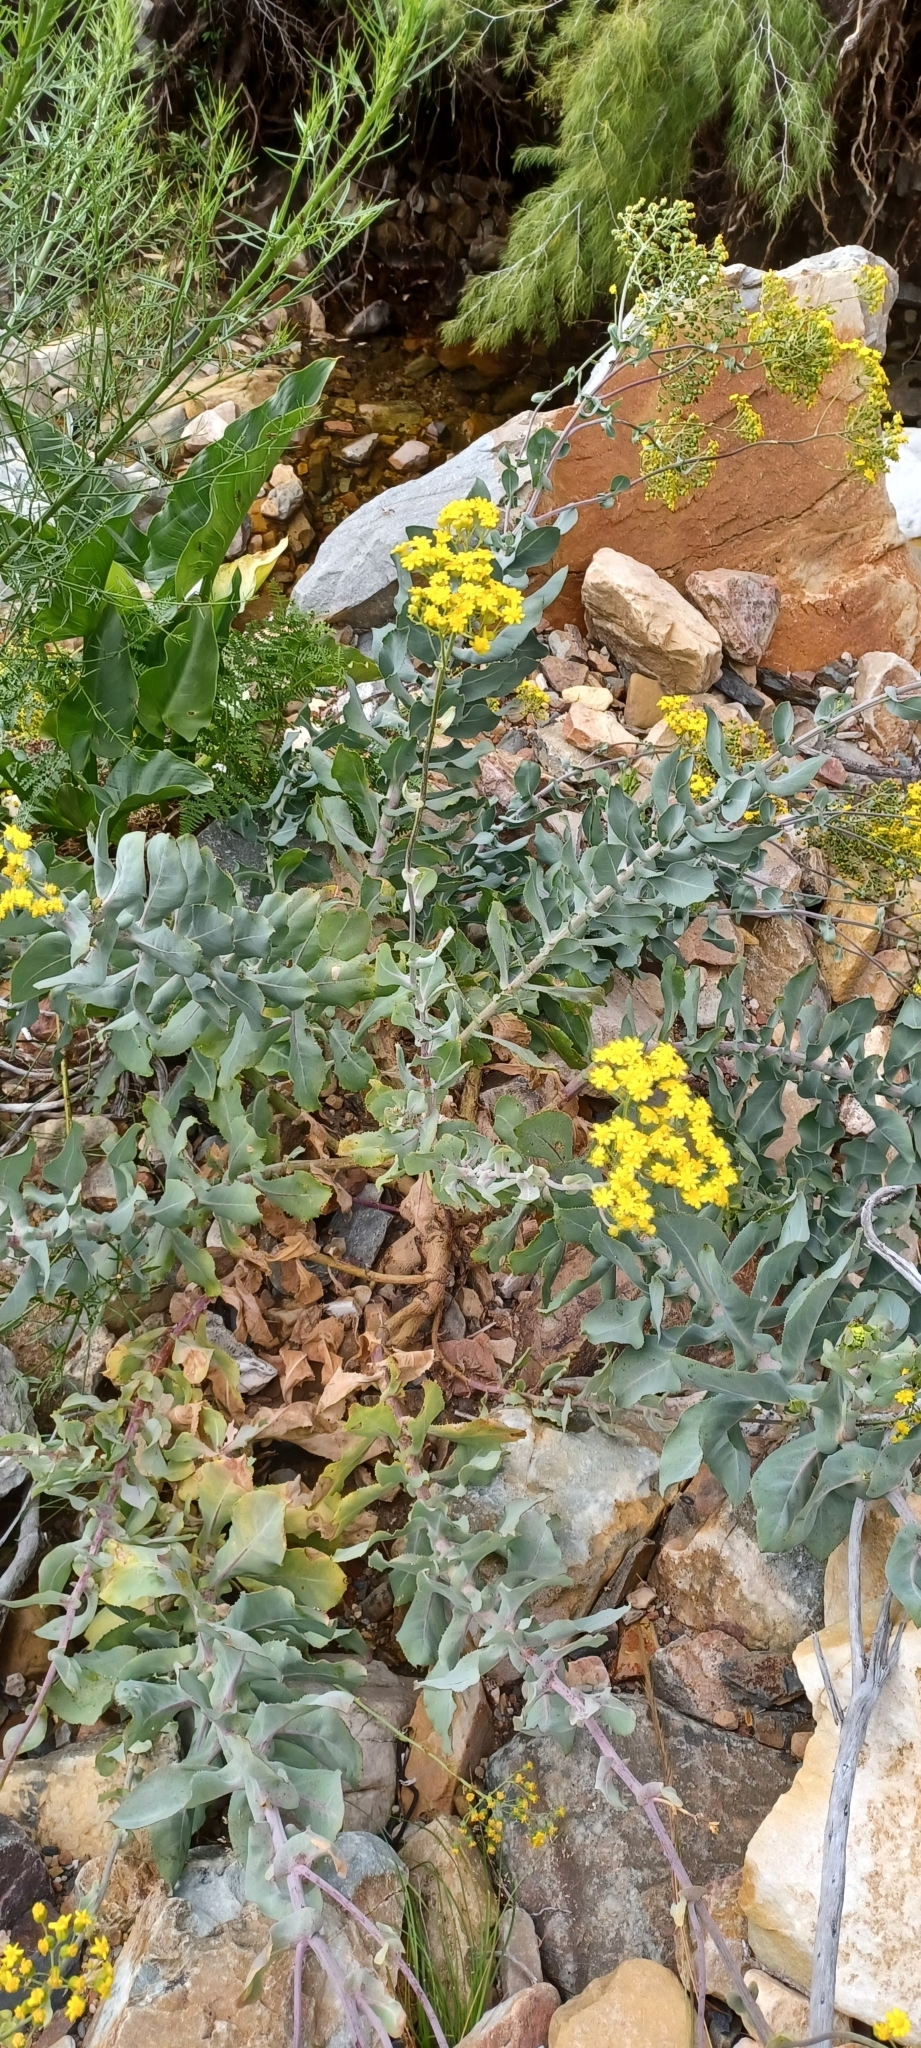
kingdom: Plantae
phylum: Tracheophyta
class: Magnoliopsida
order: Asterales
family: Asteraceae
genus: Othonna
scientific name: Othonna parviflora
